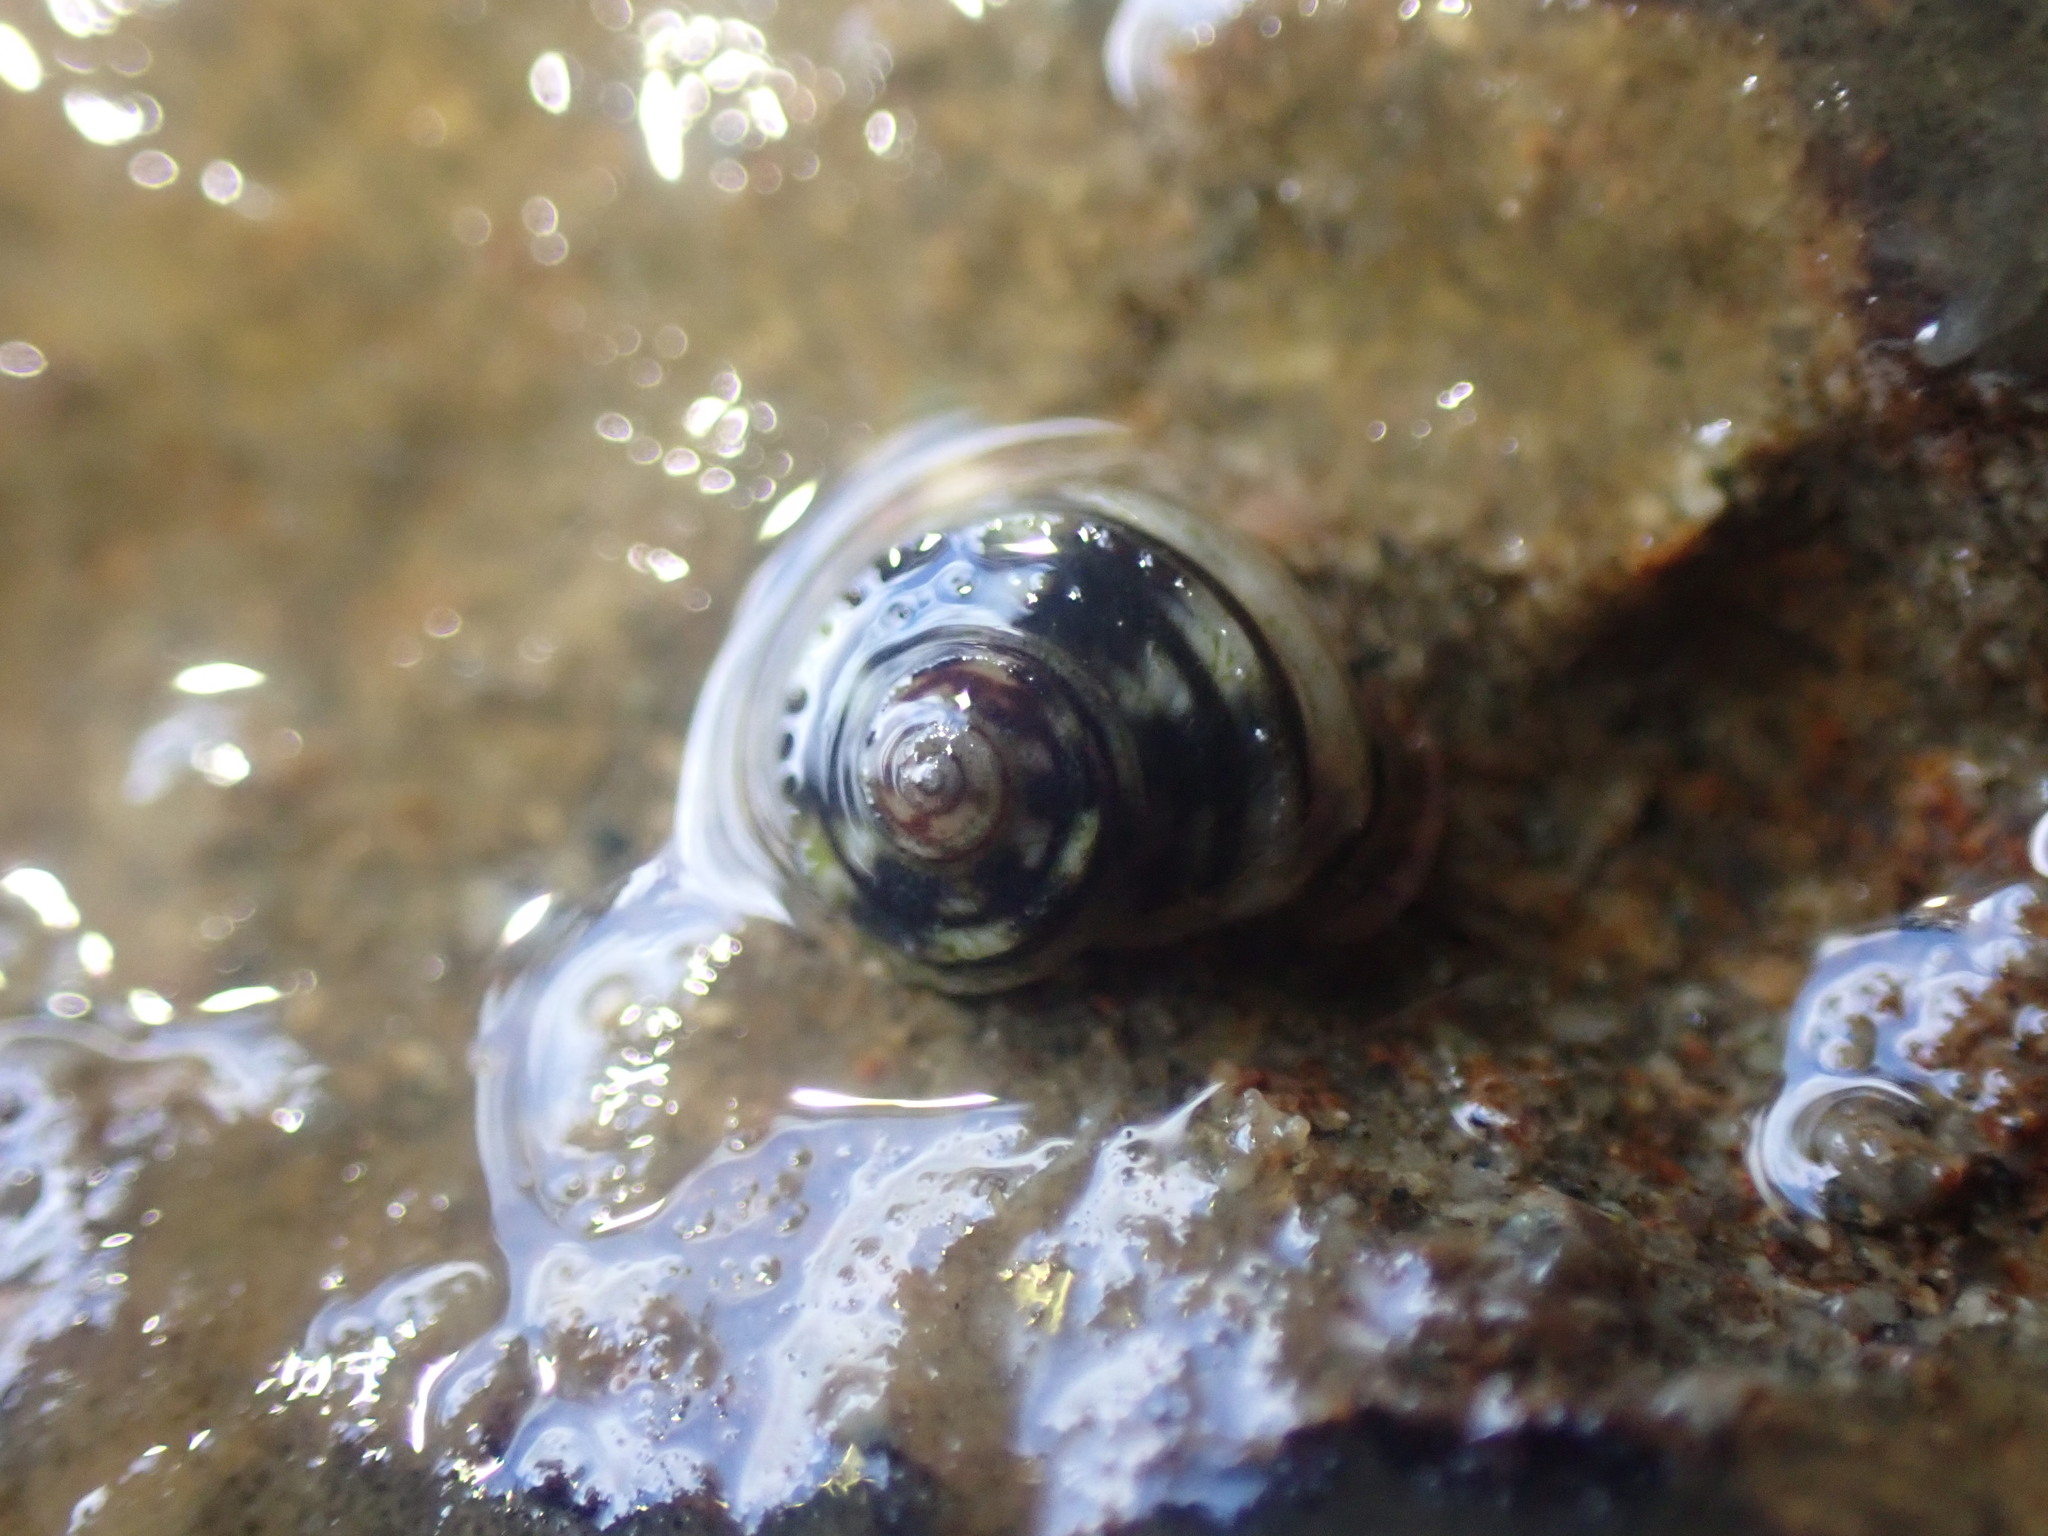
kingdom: Animalia
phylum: Mollusca
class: Gastropoda
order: Littorinimorpha
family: Littorinidae
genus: Risellopsis
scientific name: Risellopsis varia
